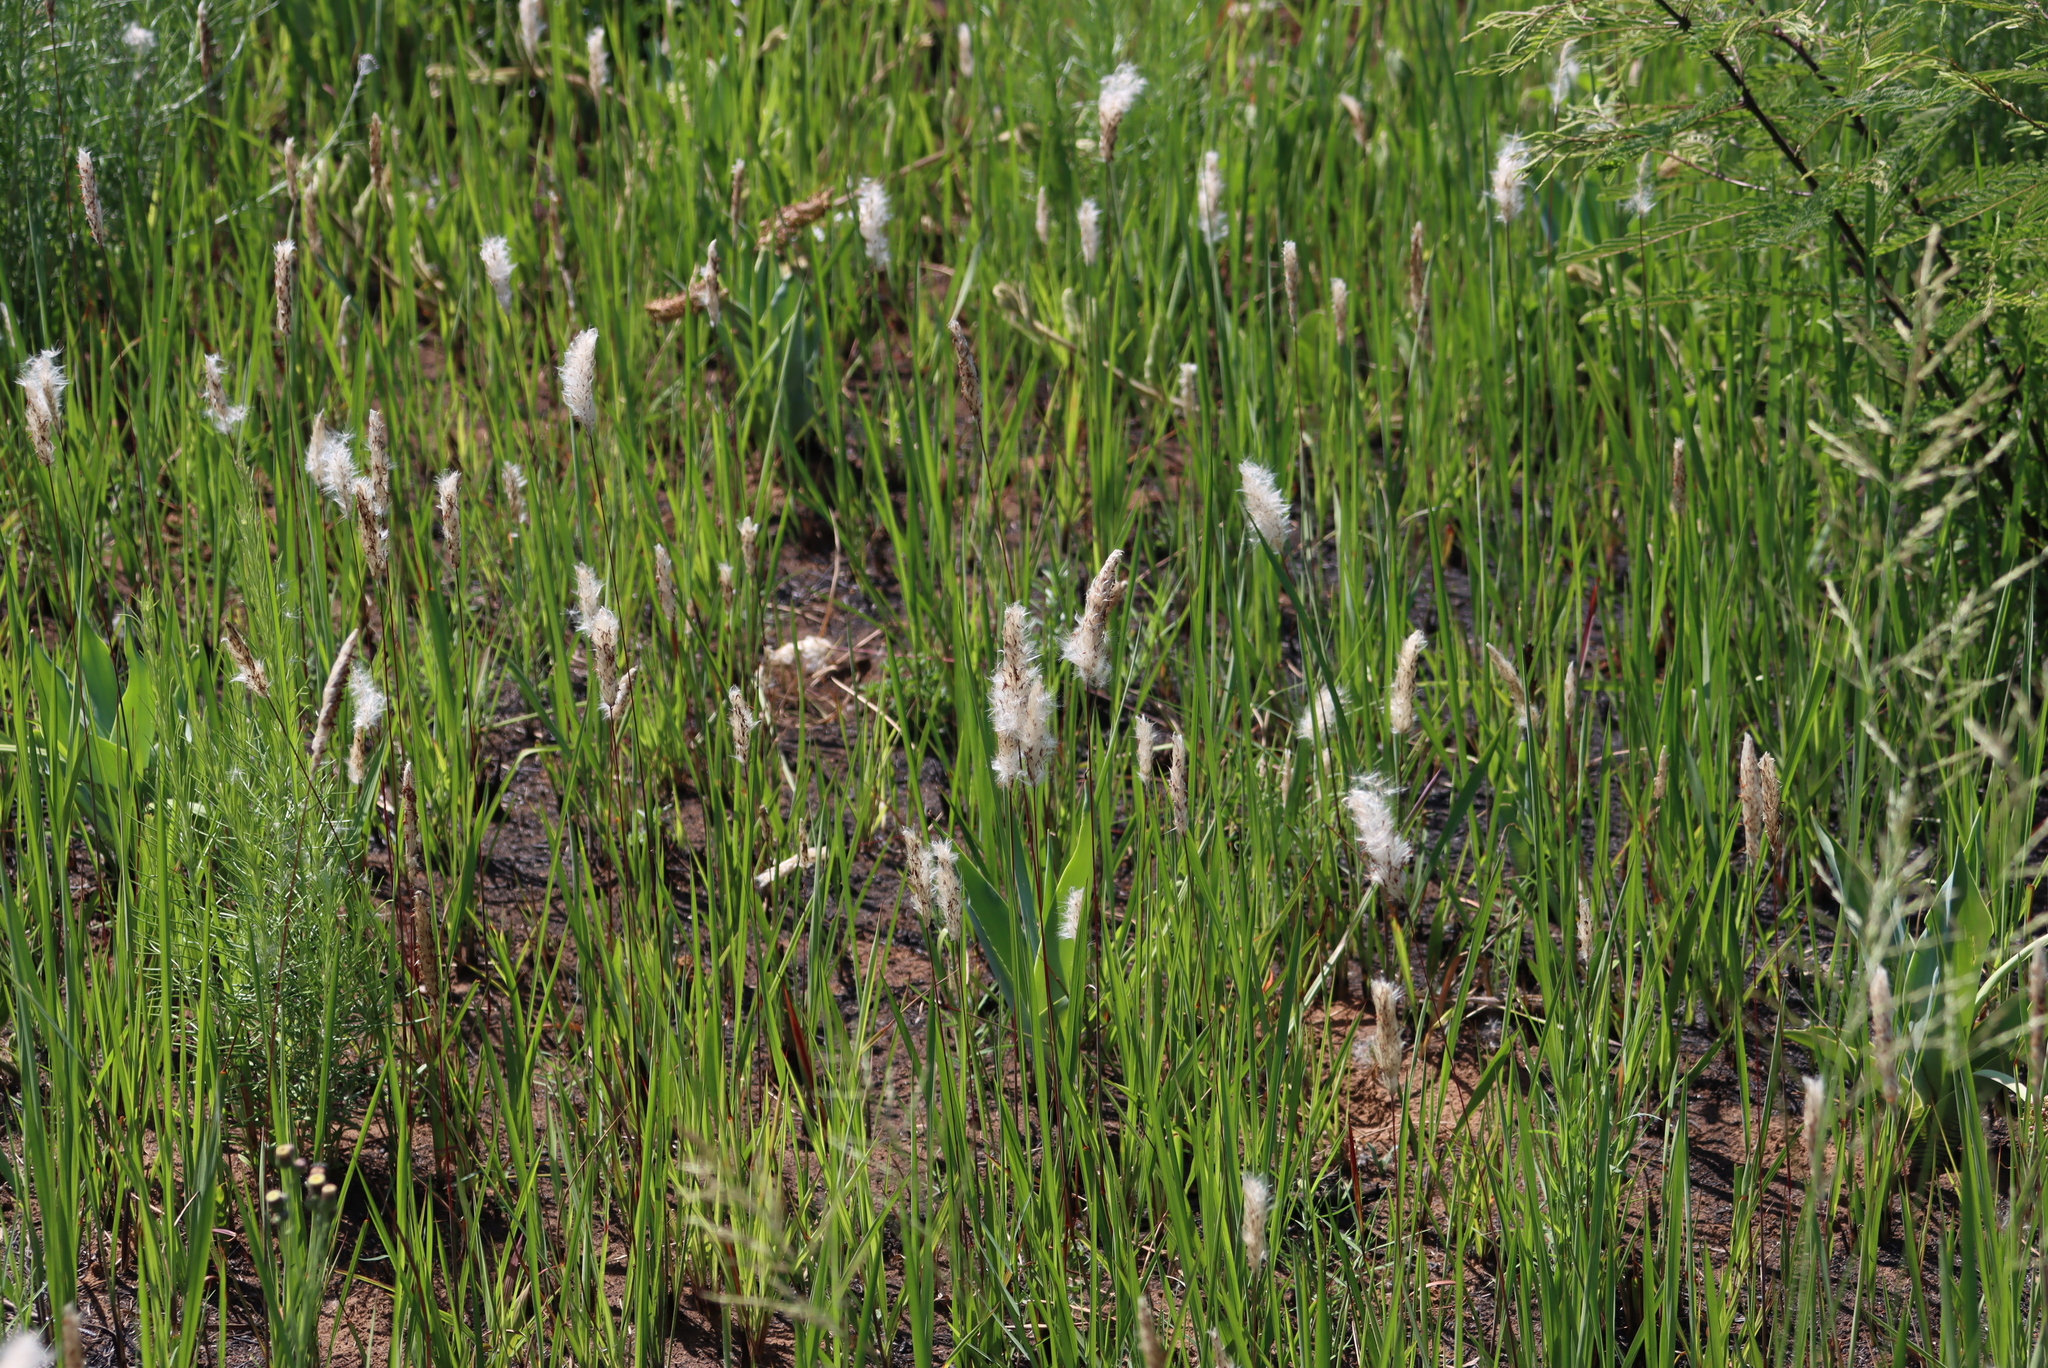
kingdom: Plantae
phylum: Tracheophyta
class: Liliopsida
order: Poales
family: Poaceae
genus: Imperata
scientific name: Imperata cylindrica
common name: Cogongrass
